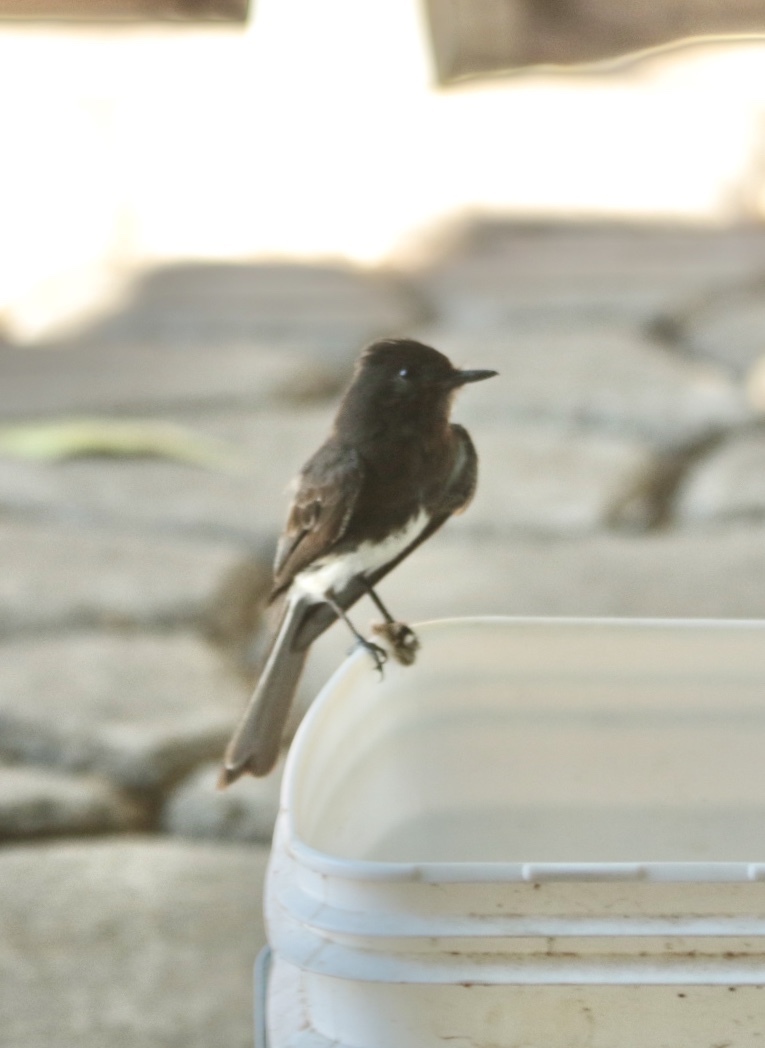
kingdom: Animalia
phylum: Chordata
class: Aves
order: Passeriformes
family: Tyrannidae
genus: Sayornis
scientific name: Sayornis nigricans
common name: Black phoebe
